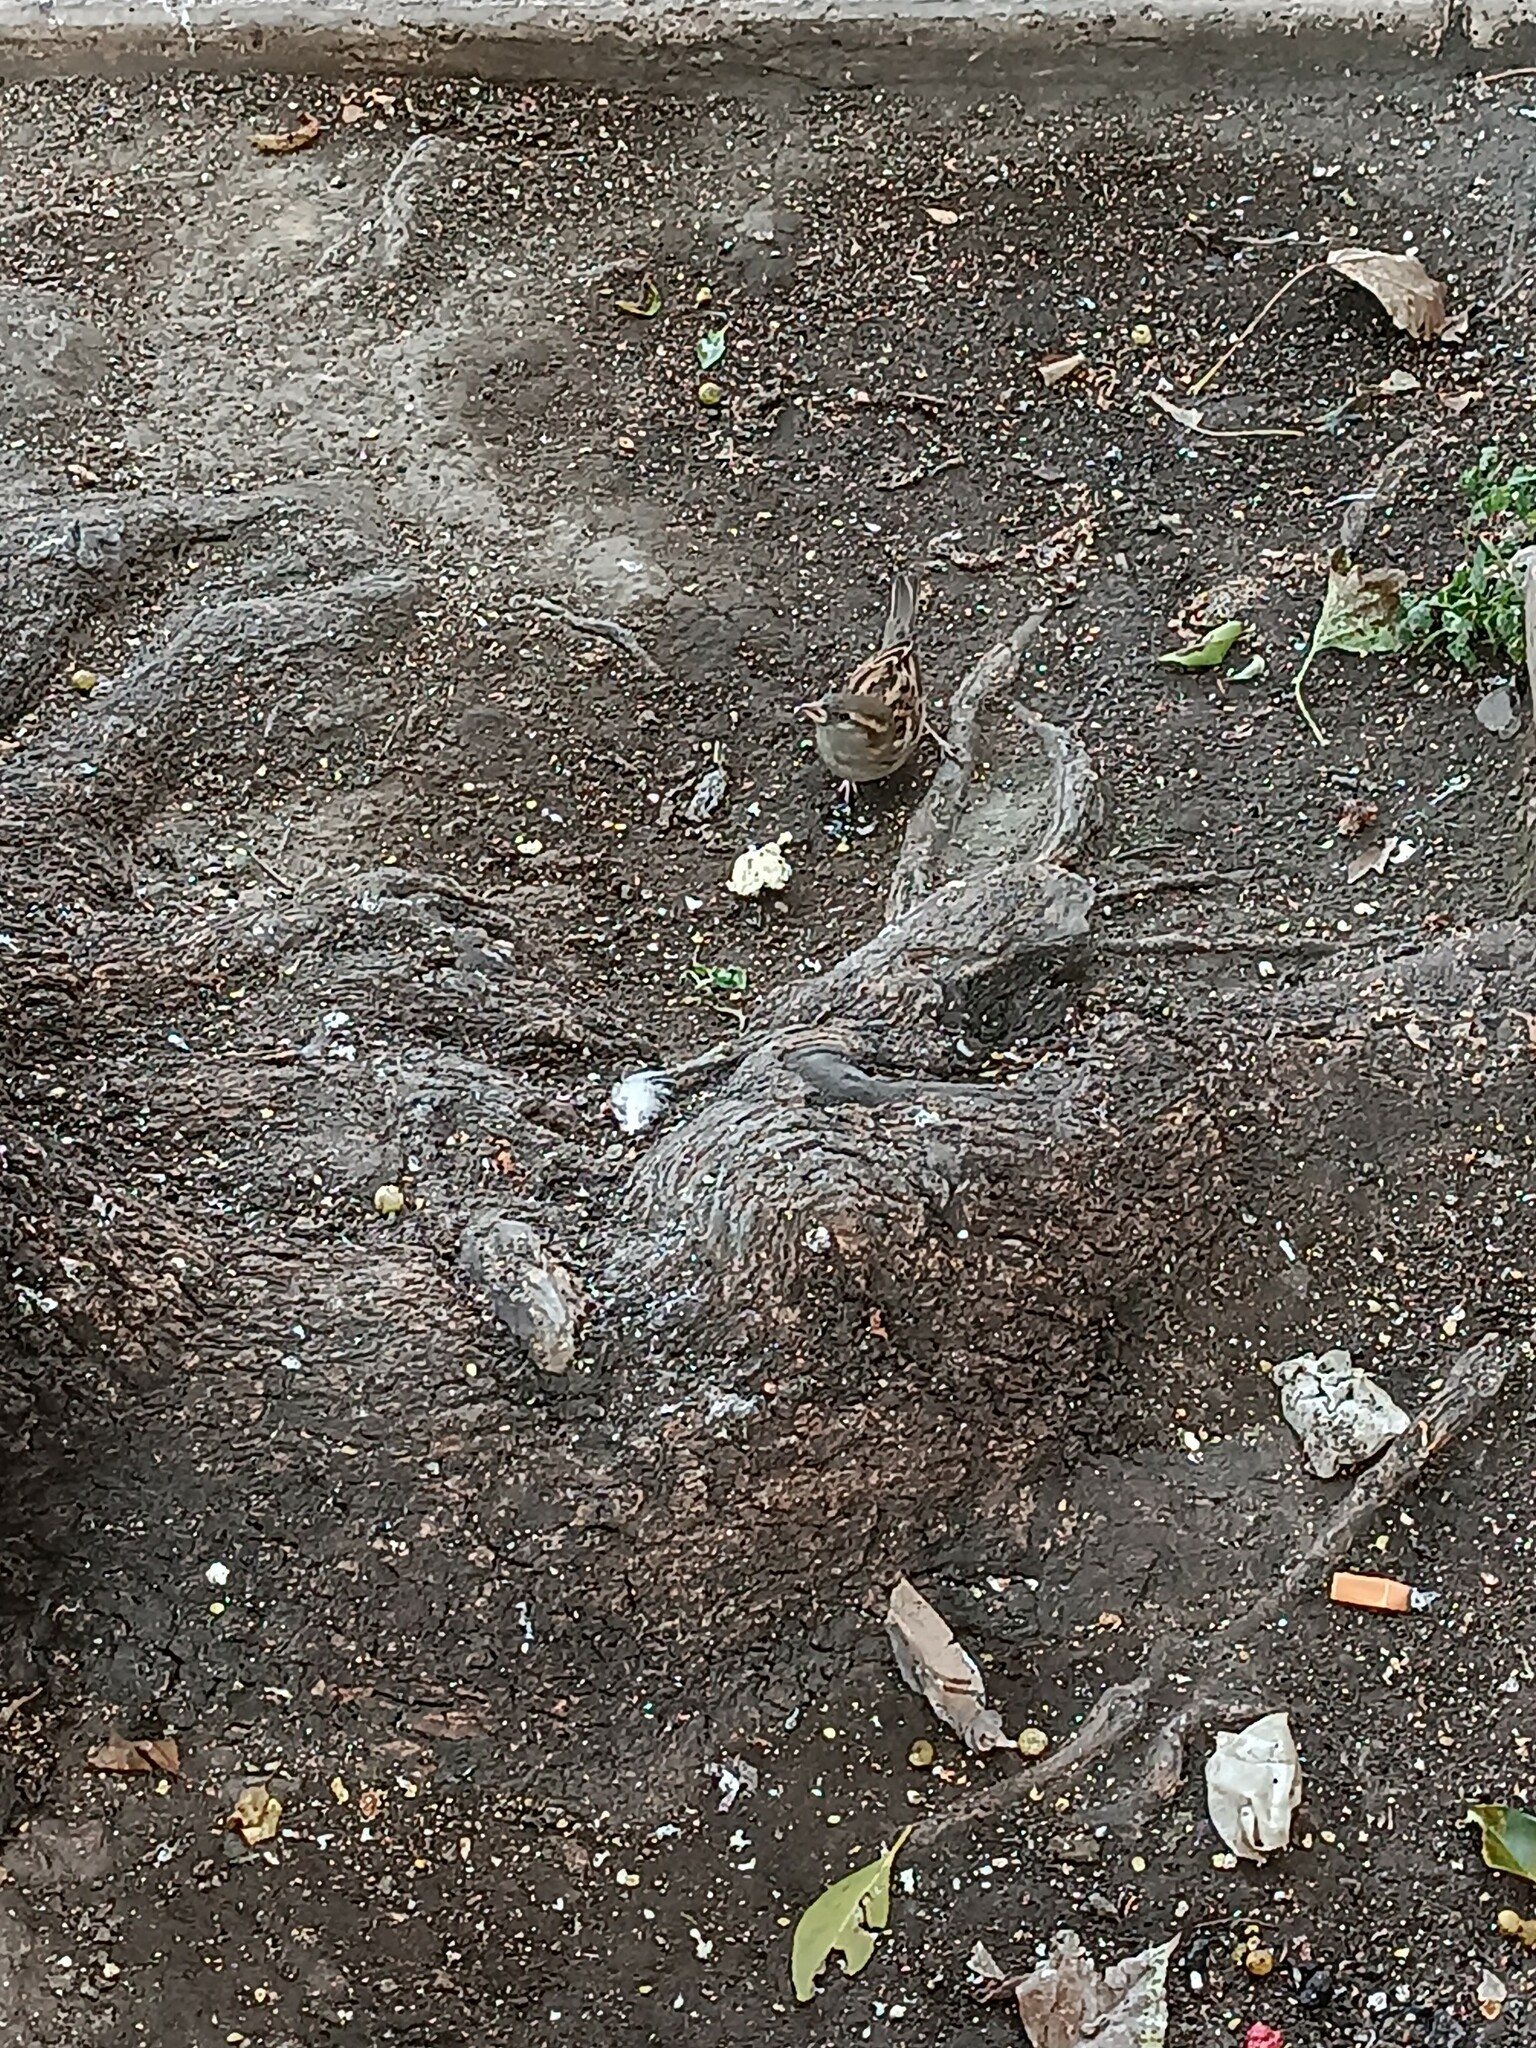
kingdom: Animalia
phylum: Chordata
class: Aves
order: Passeriformes
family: Passeridae
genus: Passer
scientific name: Passer domesticus
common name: House sparrow
